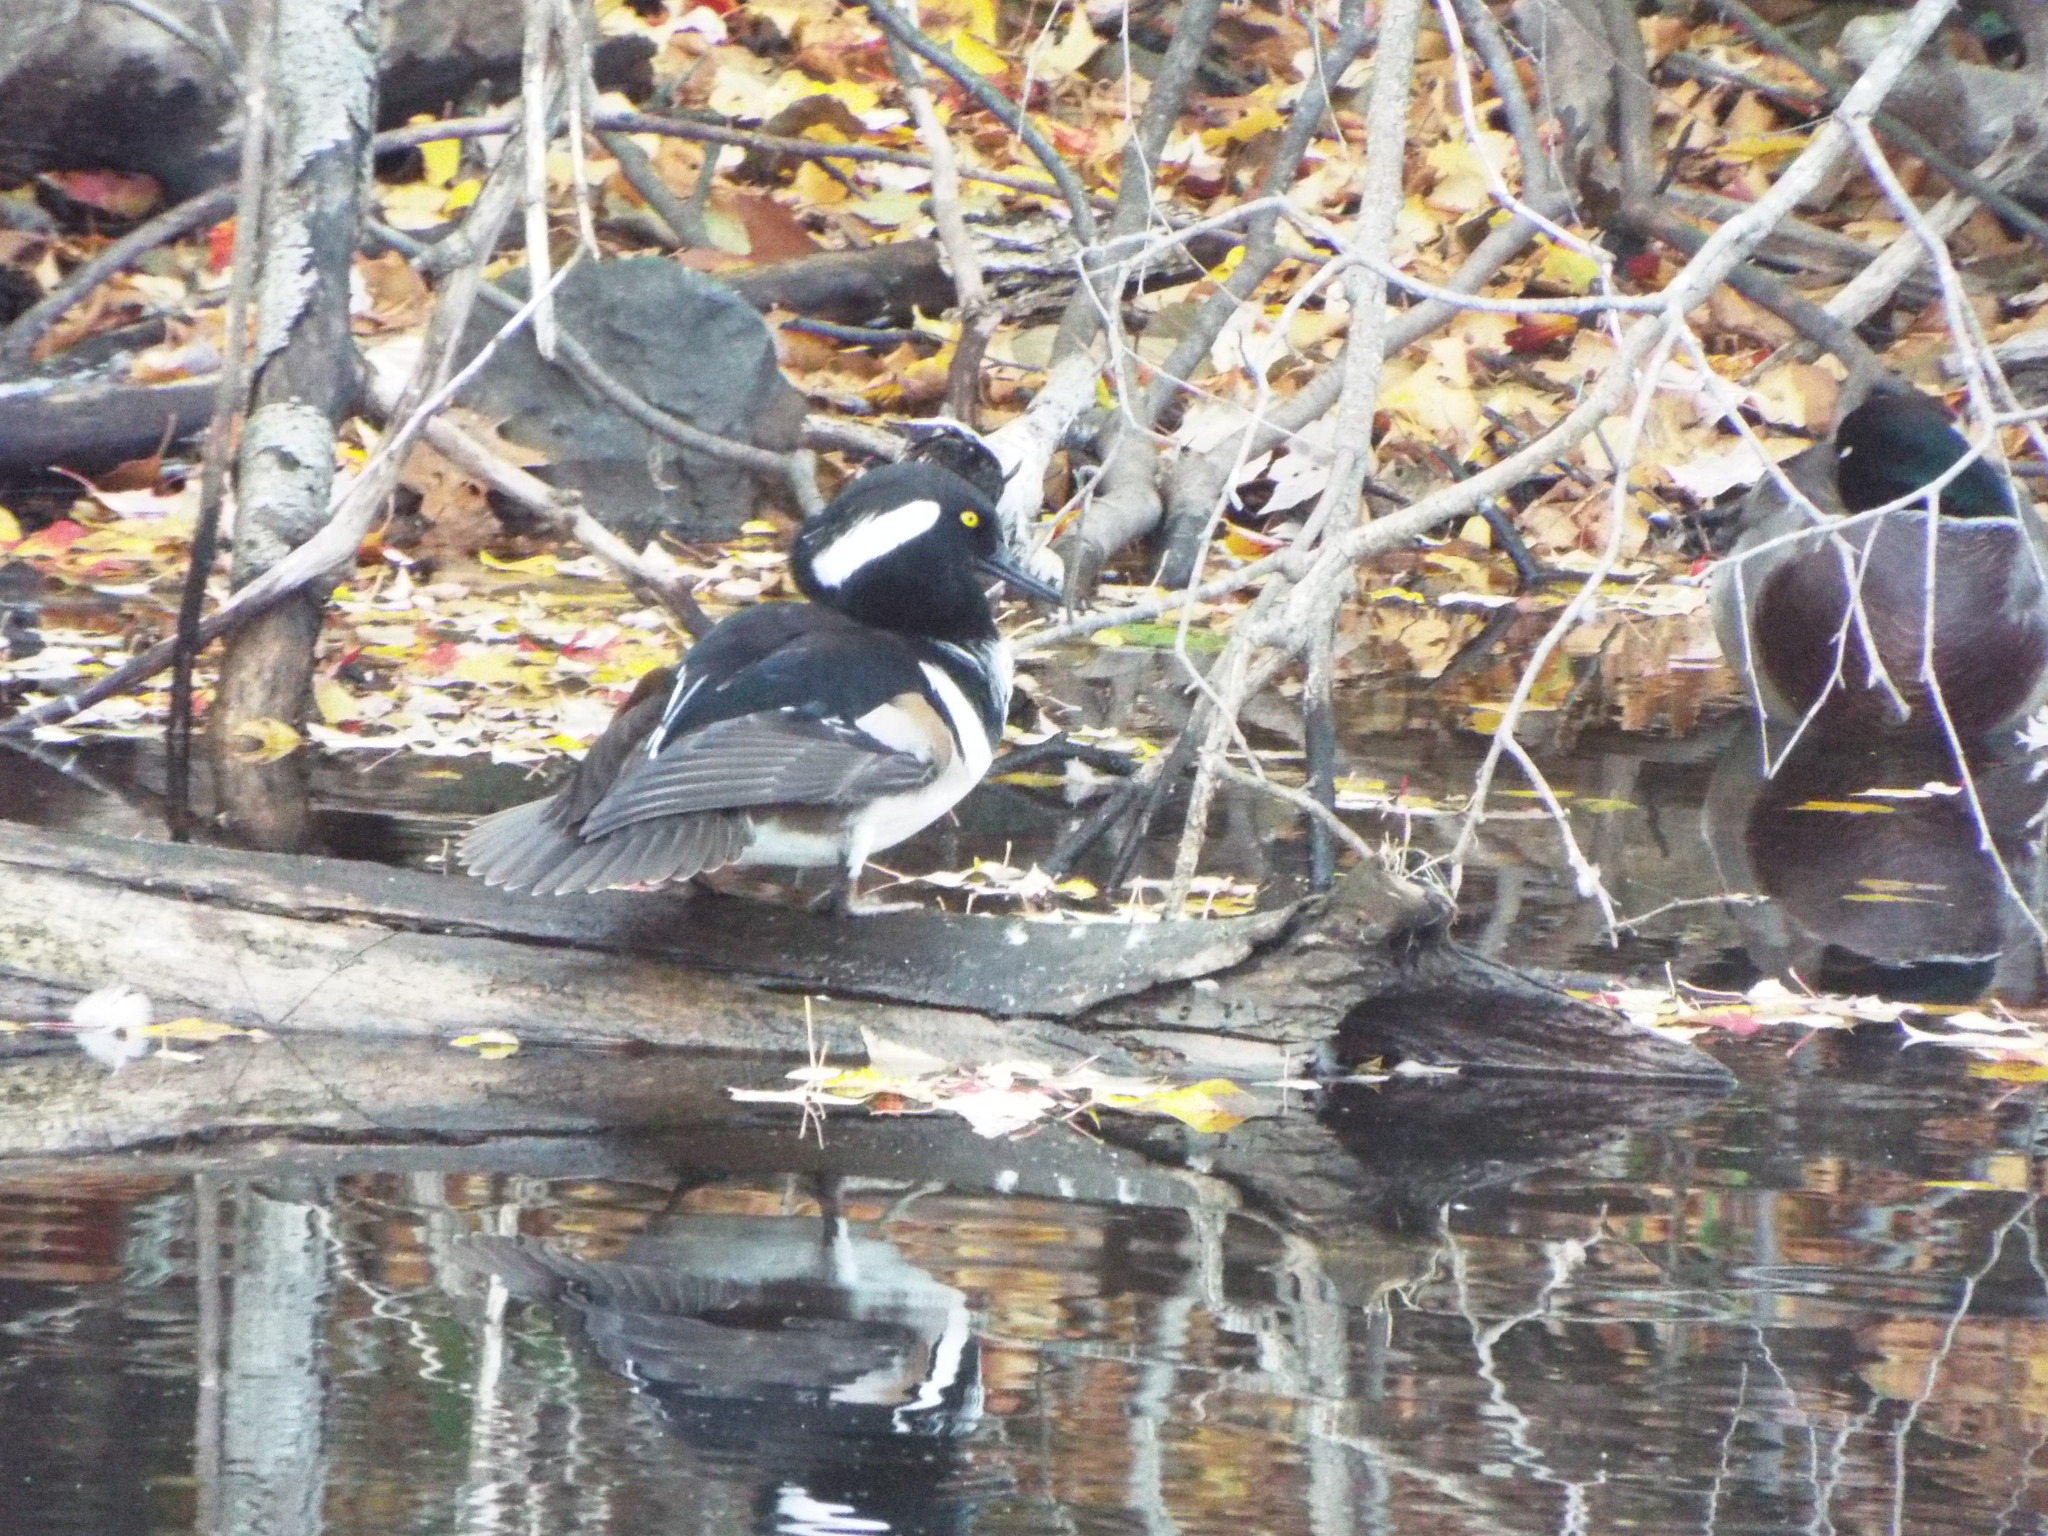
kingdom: Animalia
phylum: Chordata
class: Aves
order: Anseriformes
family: Anatidae
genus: Lophodytes
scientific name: Lophodytes cucullatus
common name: Hooded merganser
